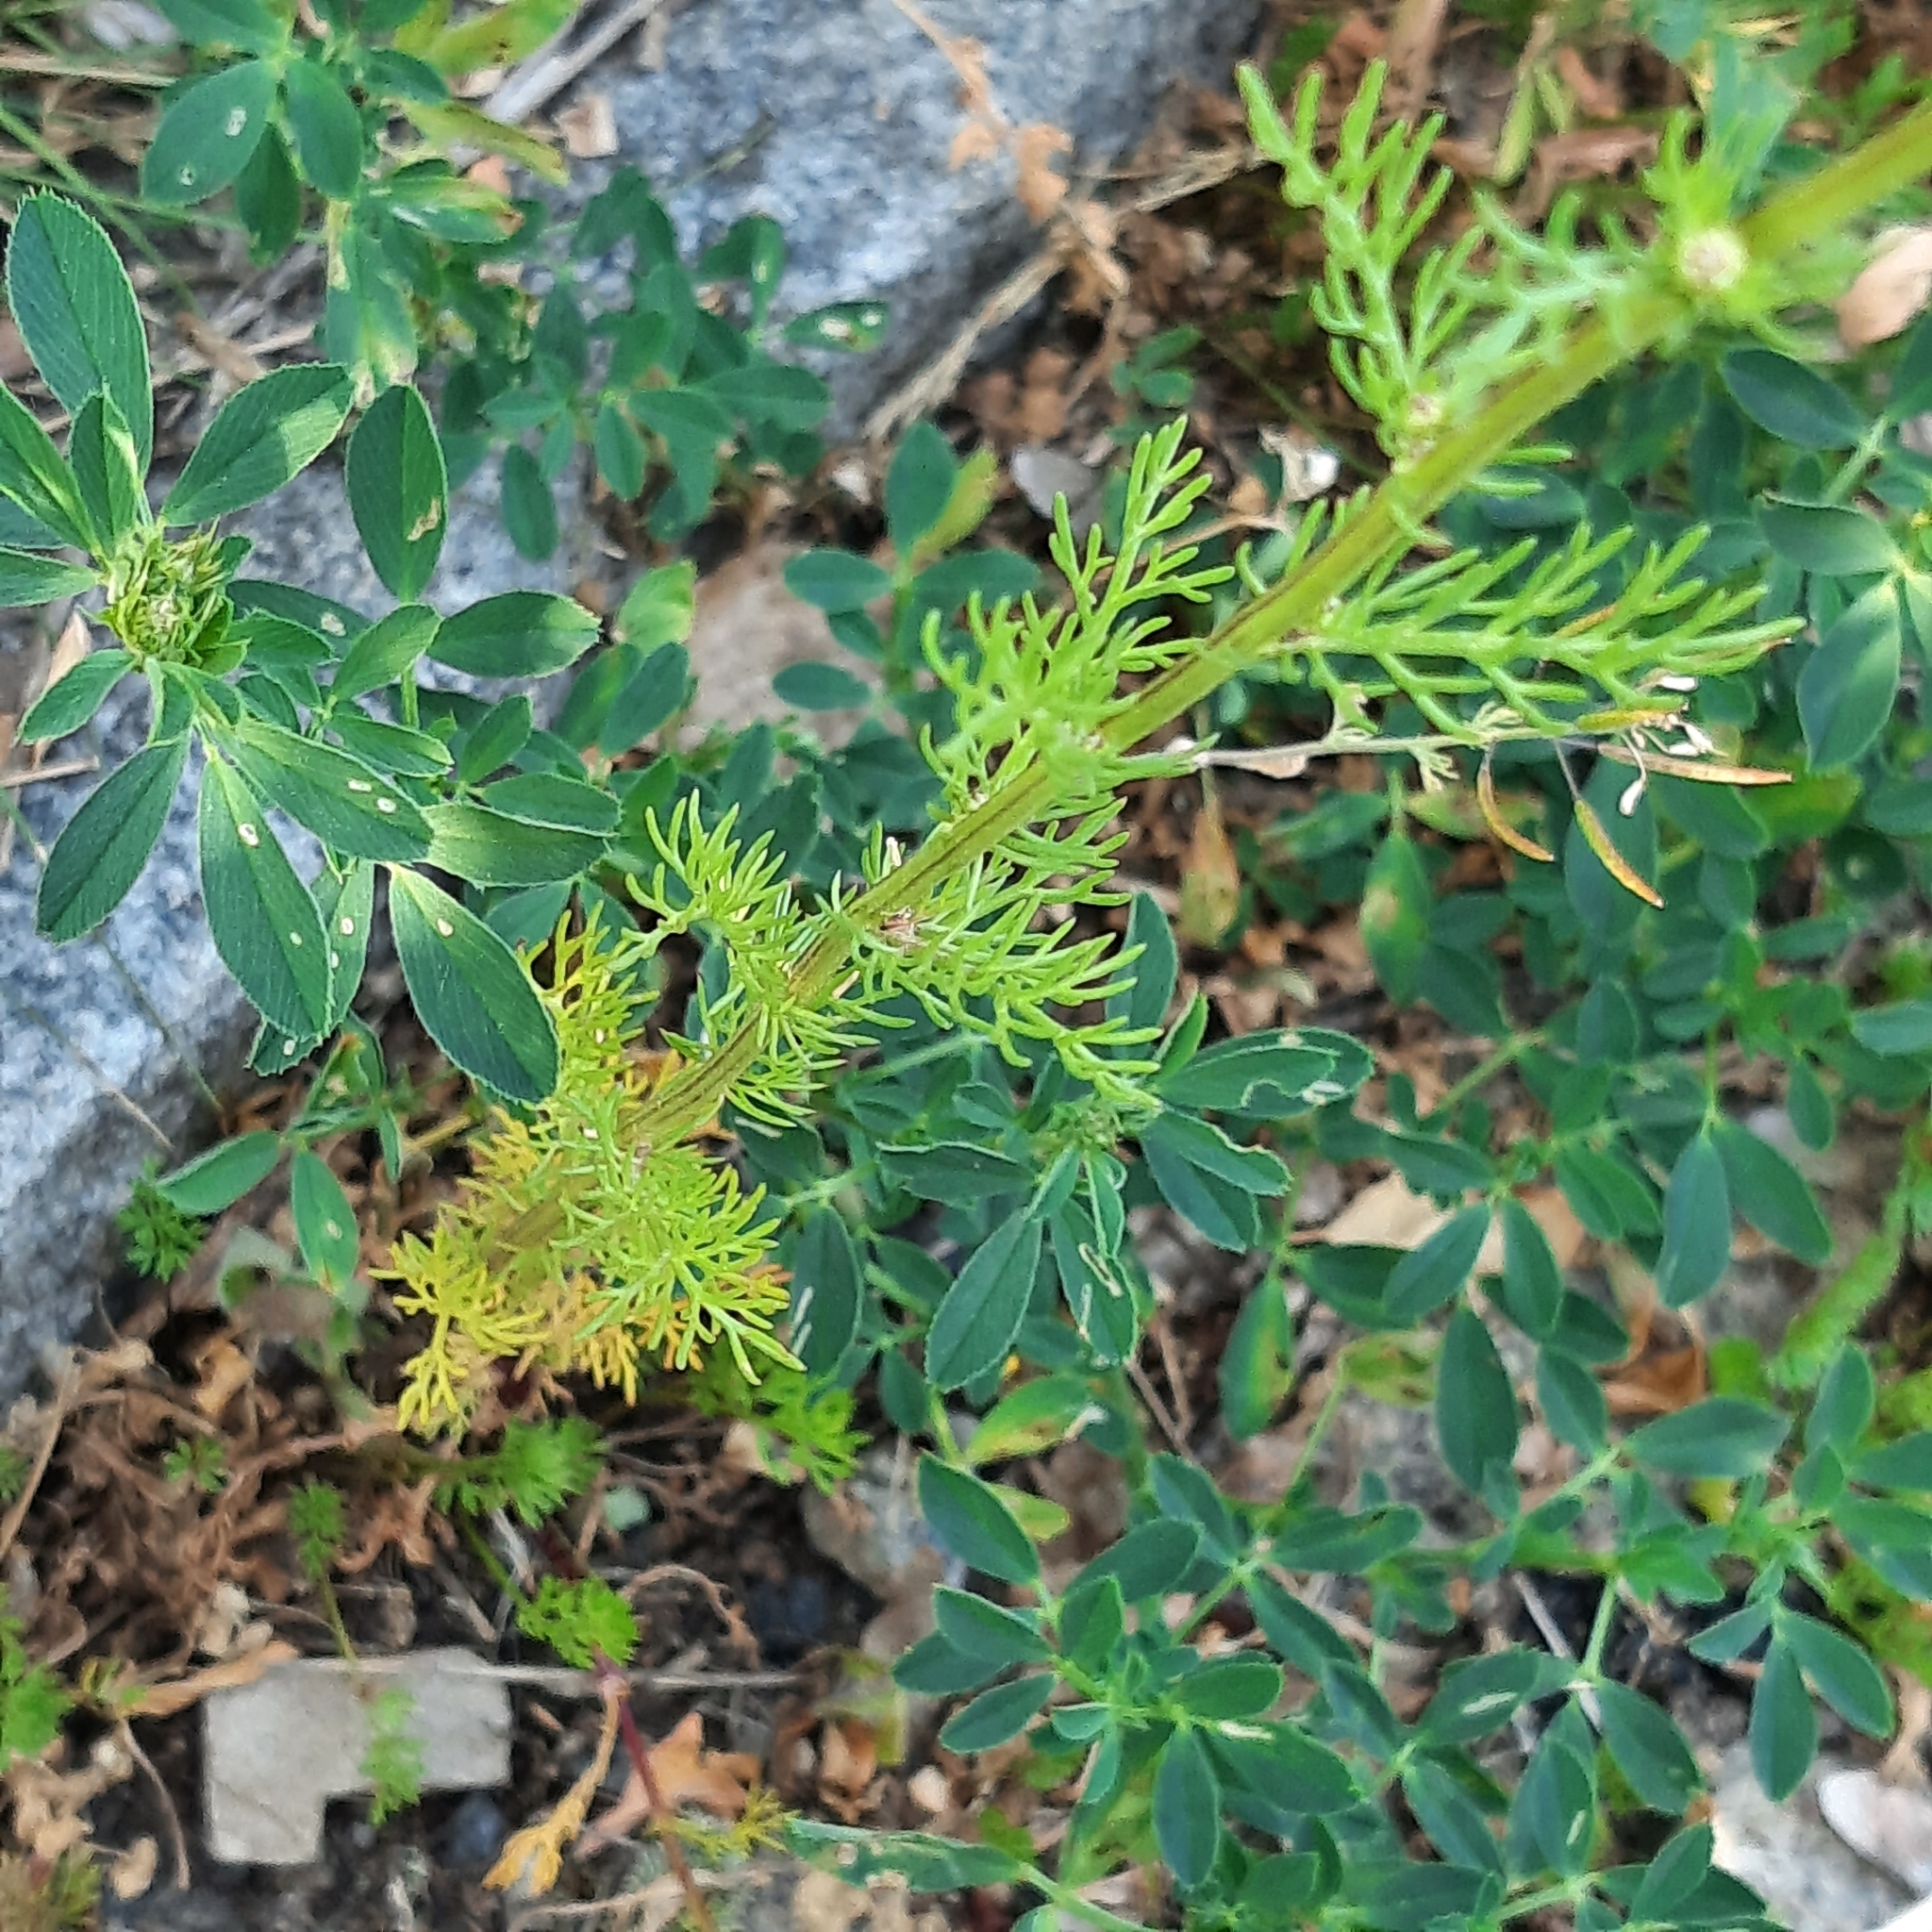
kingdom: Plantae
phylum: Tracheophyta
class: Magnoliopsida
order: Asterales
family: Asteraceae
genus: Tripleurospermum
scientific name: Tripleurospermum inodorum
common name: Scentless mayweed
